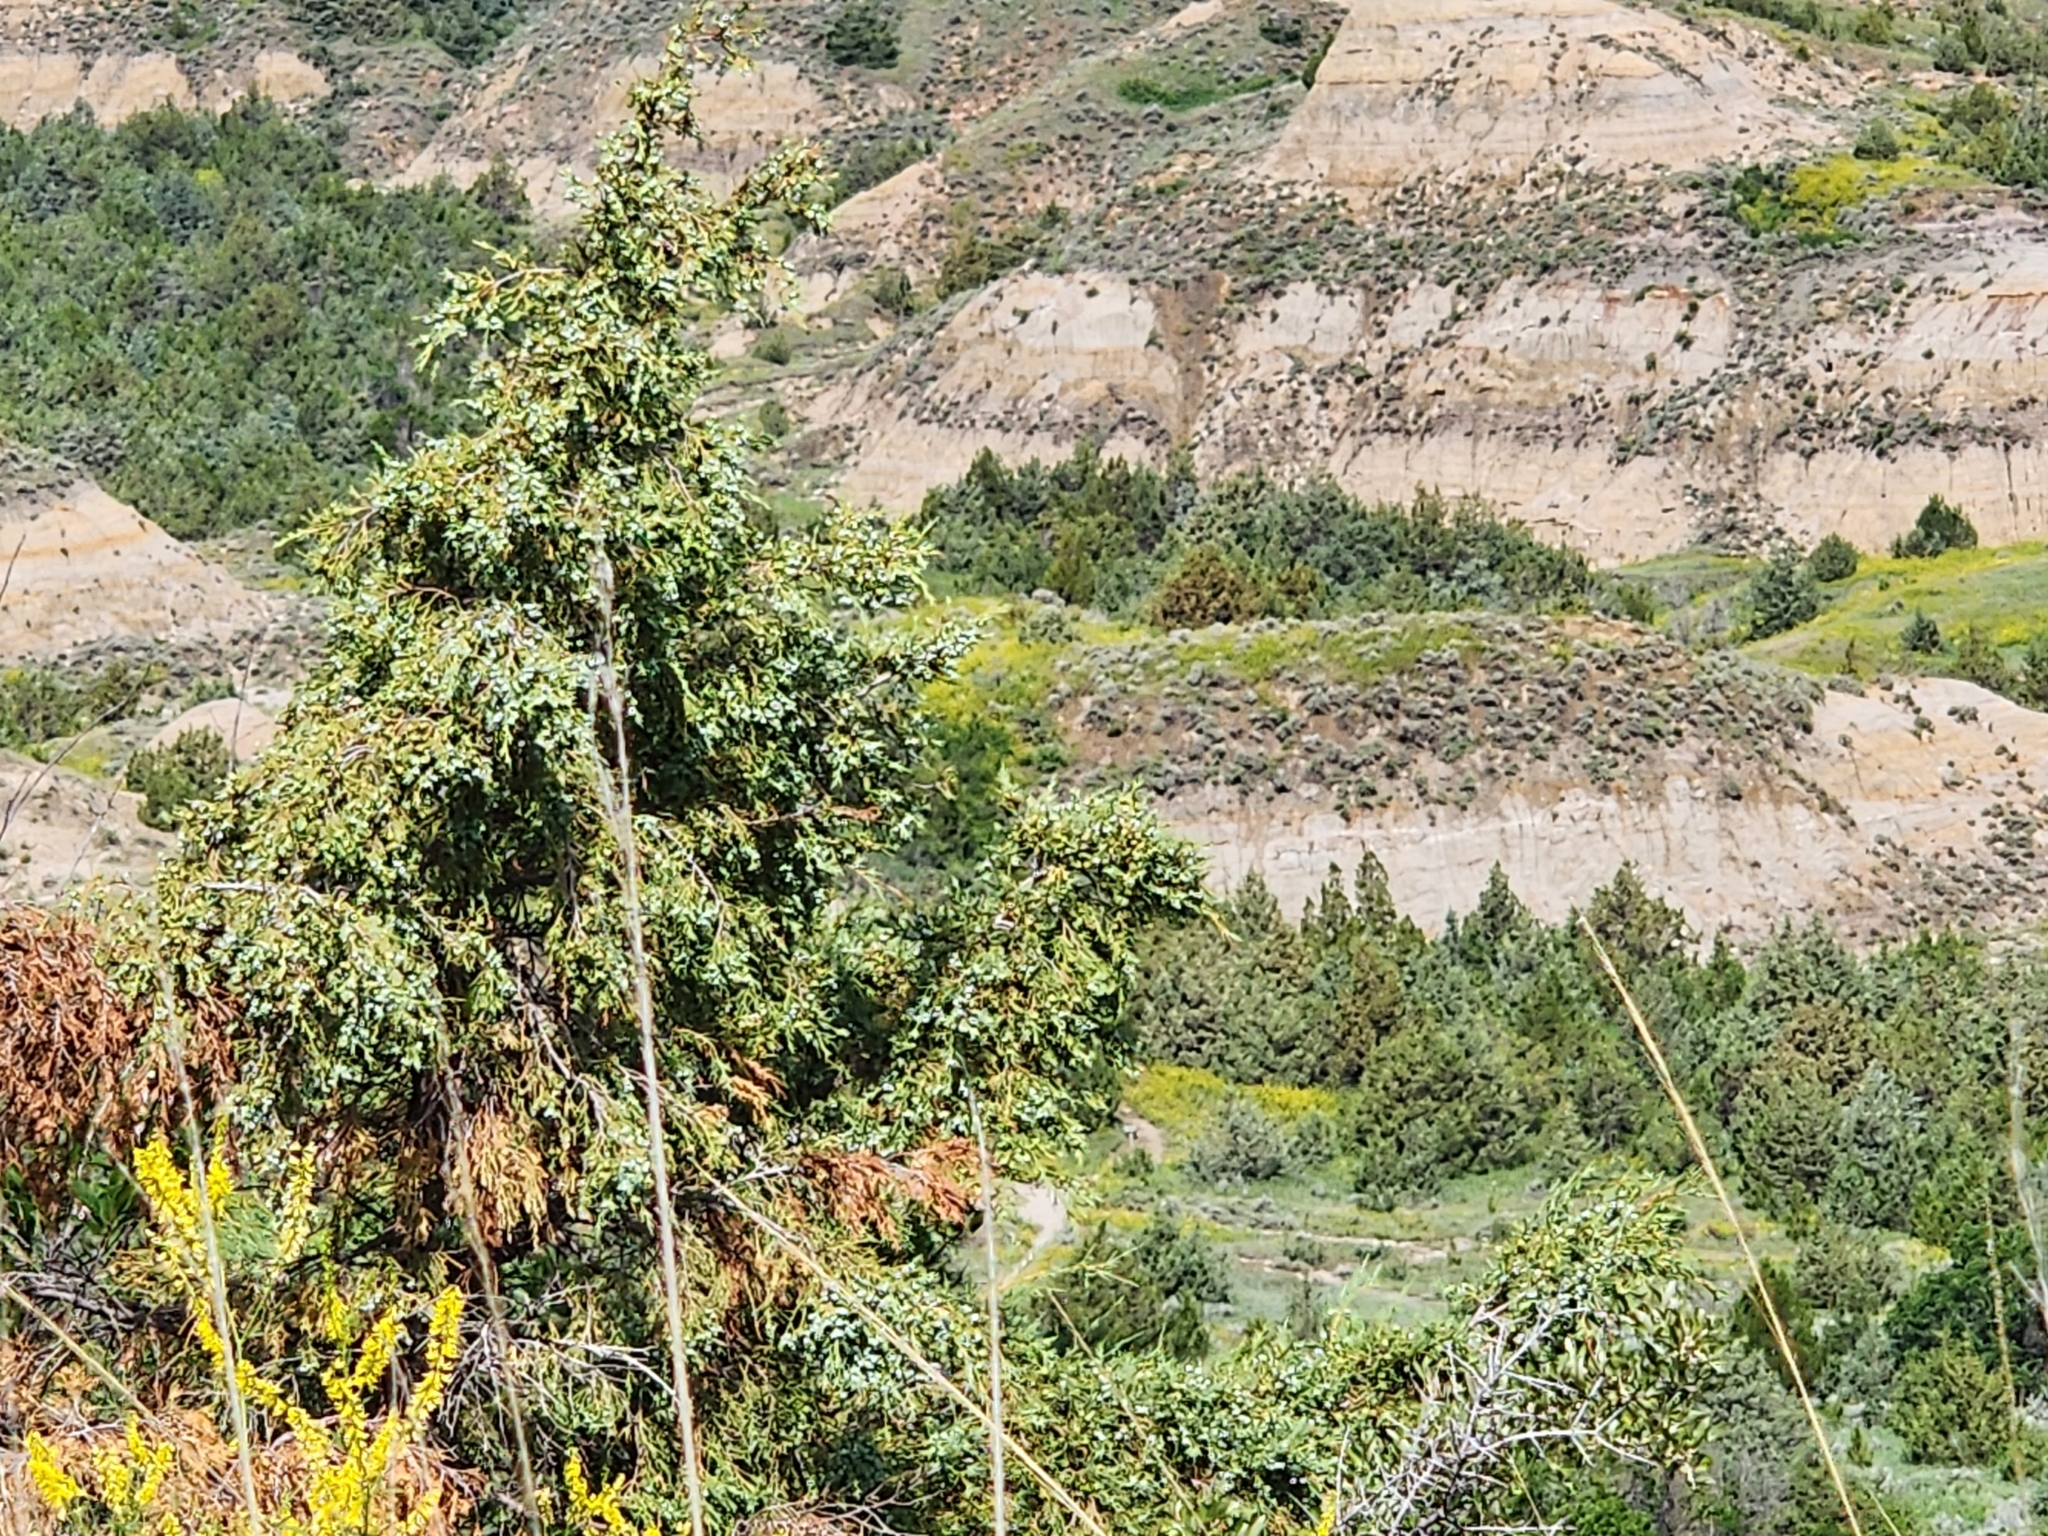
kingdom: Plantae
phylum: Tracheophyta
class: Pinopsida
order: Pinales
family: Cupressaceae
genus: Juniperus
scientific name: Juniperus scopulorum
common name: Rocky mountain juniper
